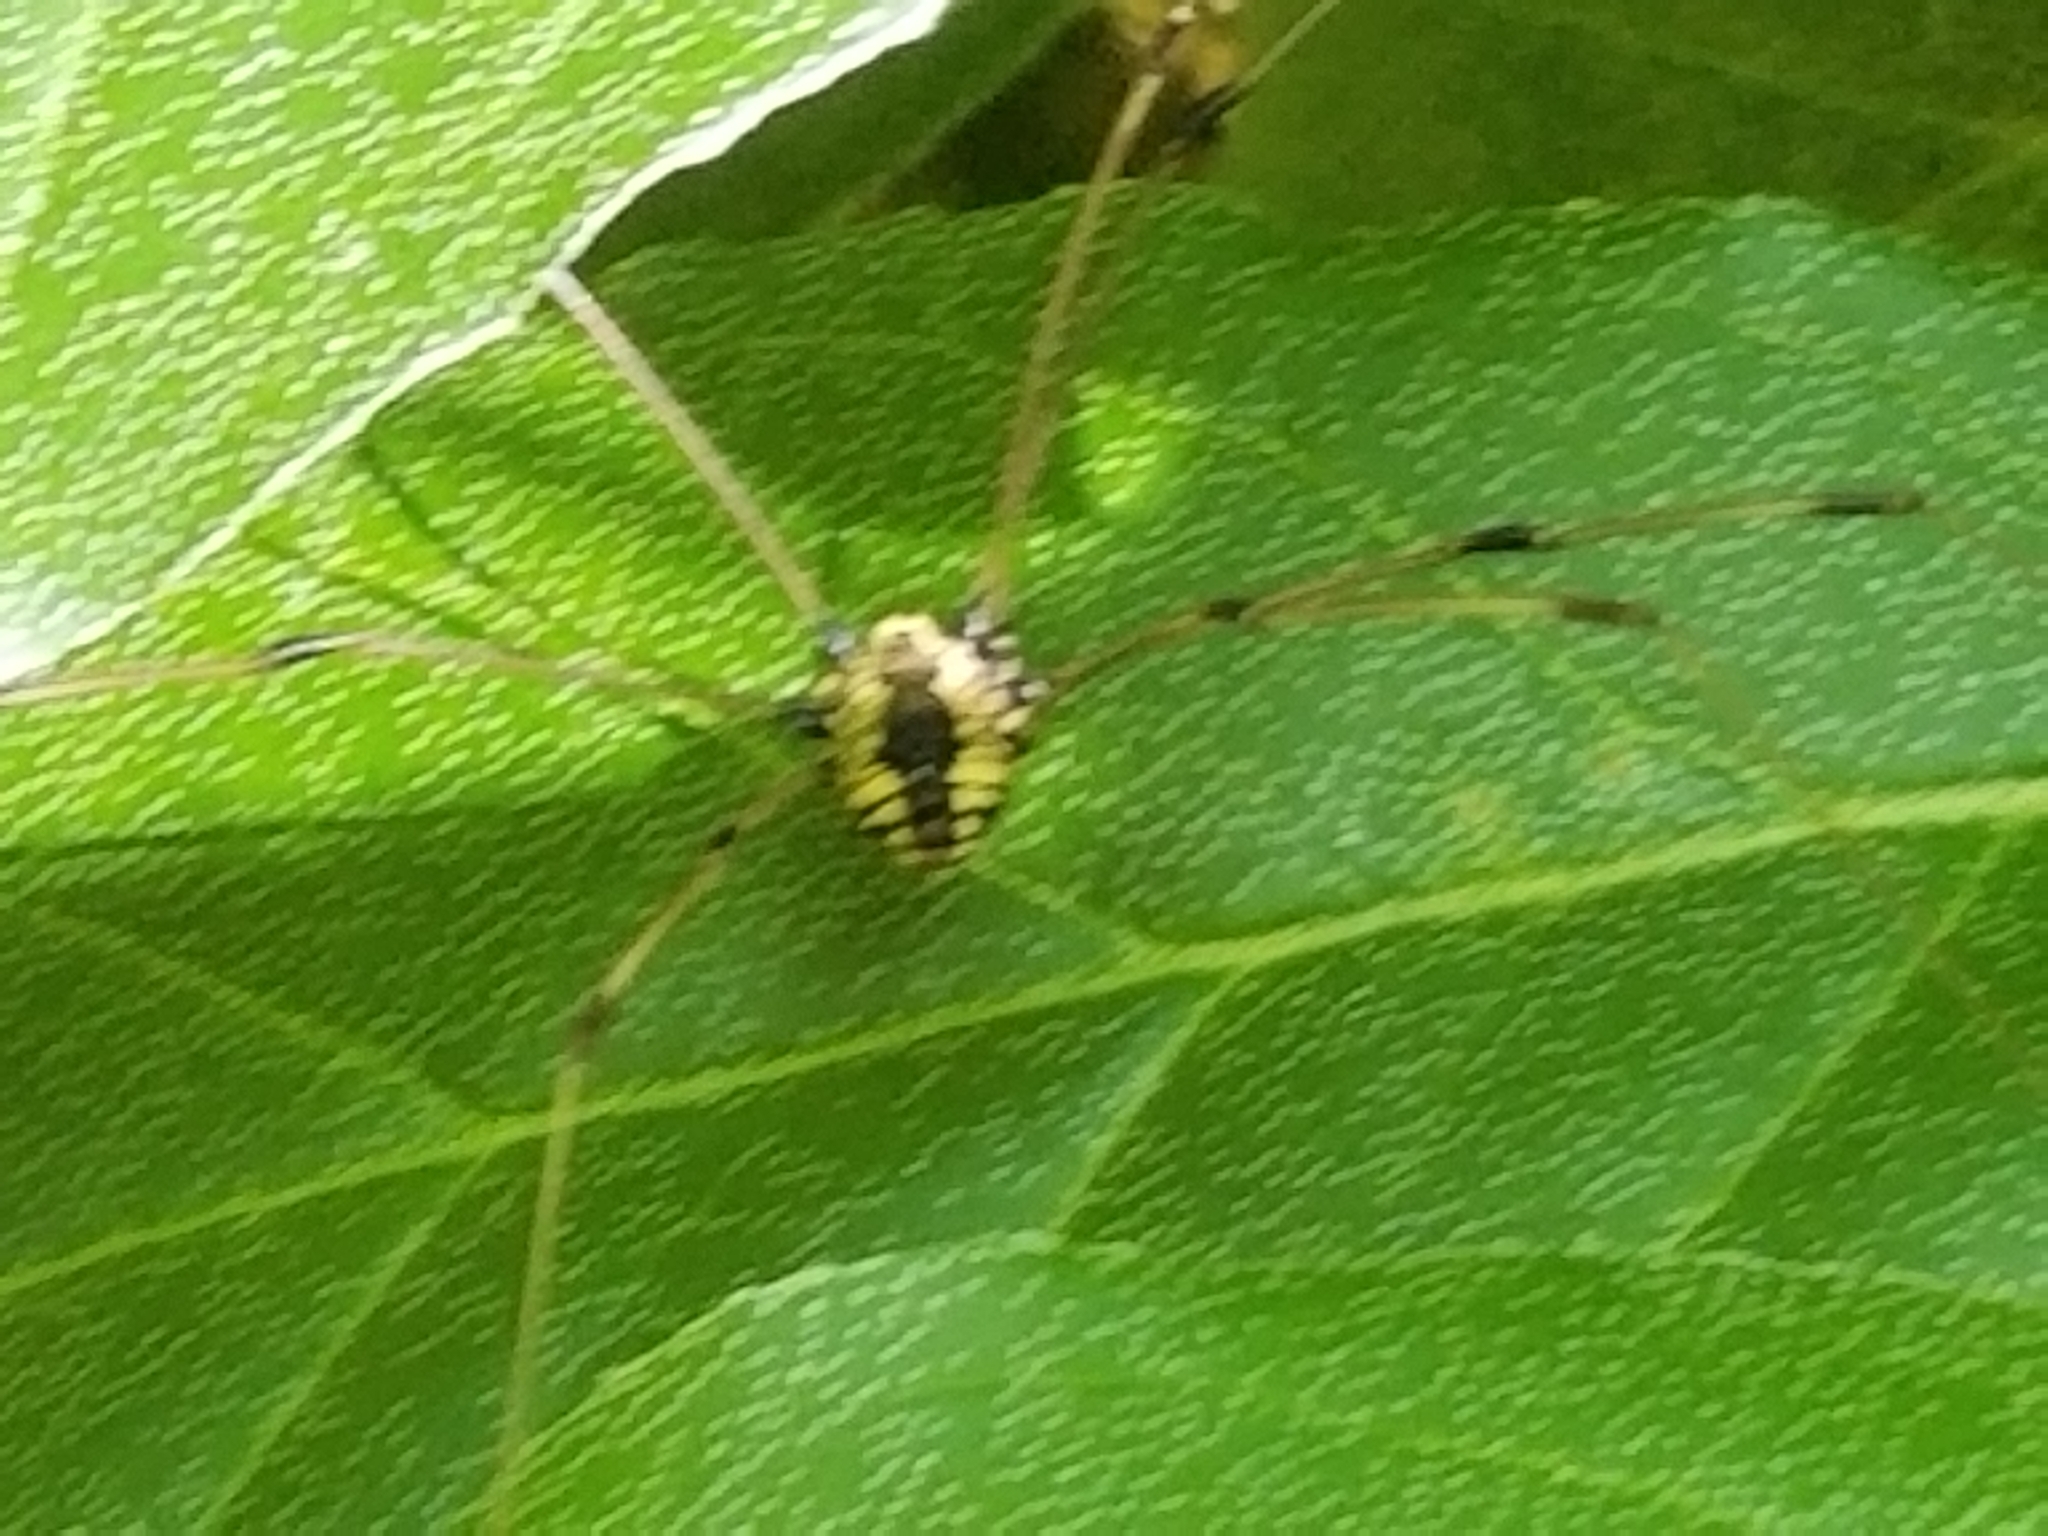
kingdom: Animalia
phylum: Arthropoda
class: Arachnida
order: Opiliones
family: Sclerosomatidae
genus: Leiobunum
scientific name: Leiobunum vittatum
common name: Eastern harvestman
